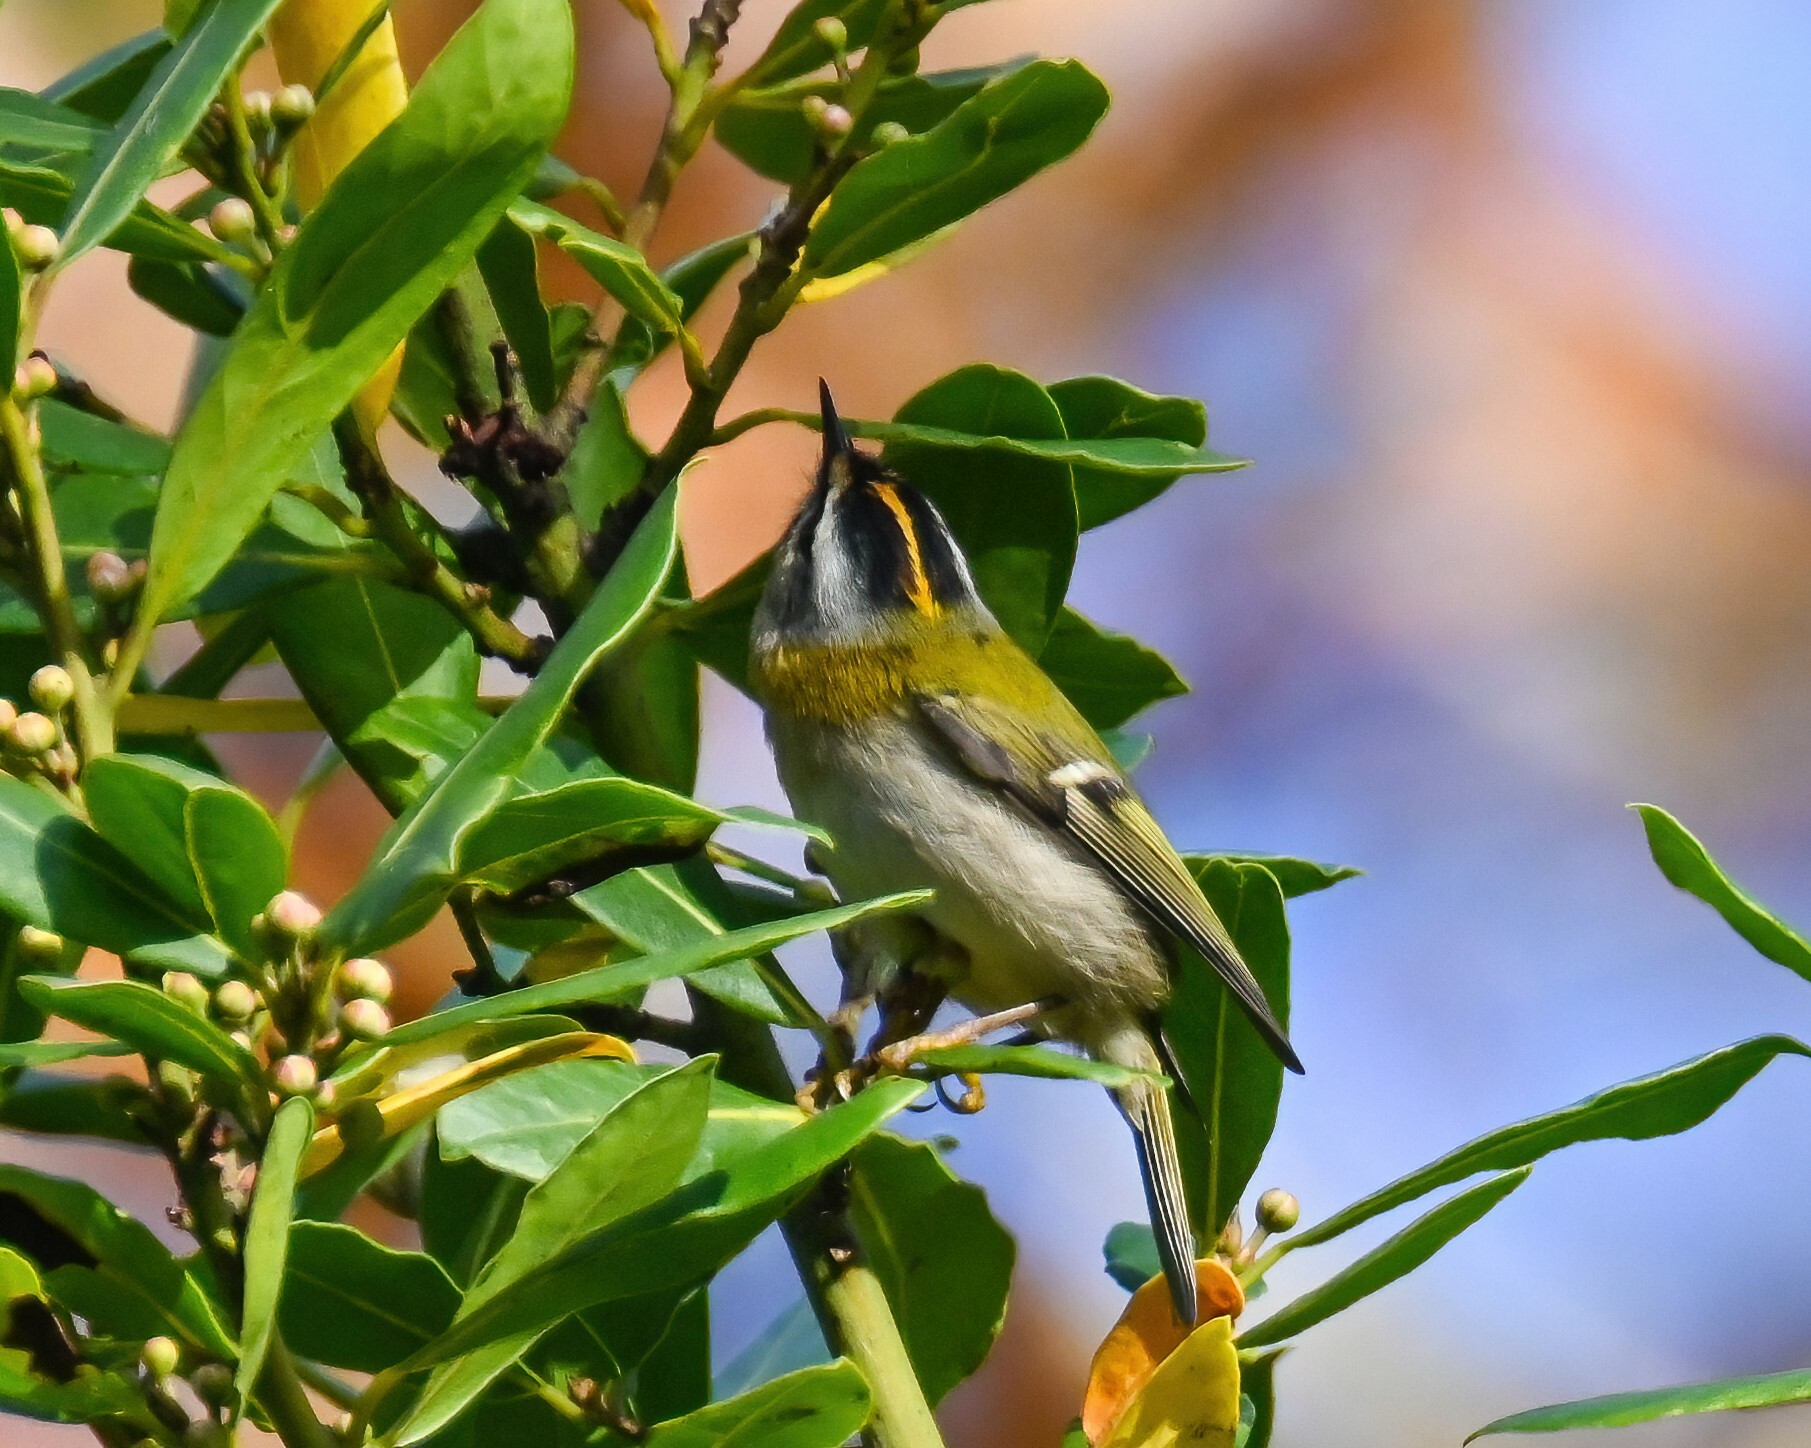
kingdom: Animalia
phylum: Chordata
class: Aves
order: Passeriformes
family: Regulidae
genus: Regulus
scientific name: Regulus ignicapilla
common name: Firecrest
